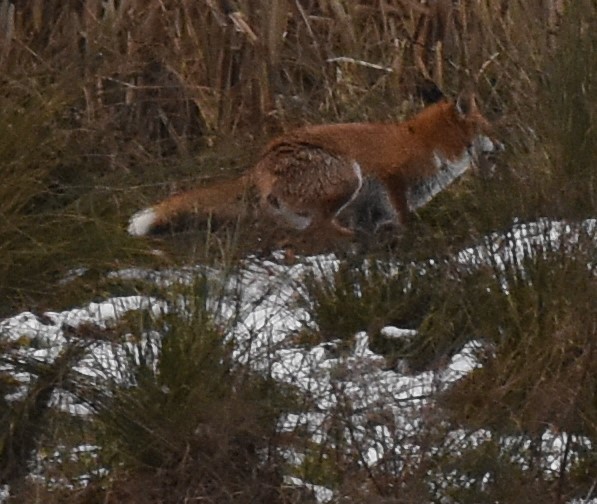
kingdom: Animalia
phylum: Chordata
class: Mammalia
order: Carnivora
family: Canidae
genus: Vulpes
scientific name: Vulpes vulpes
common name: Red fox
